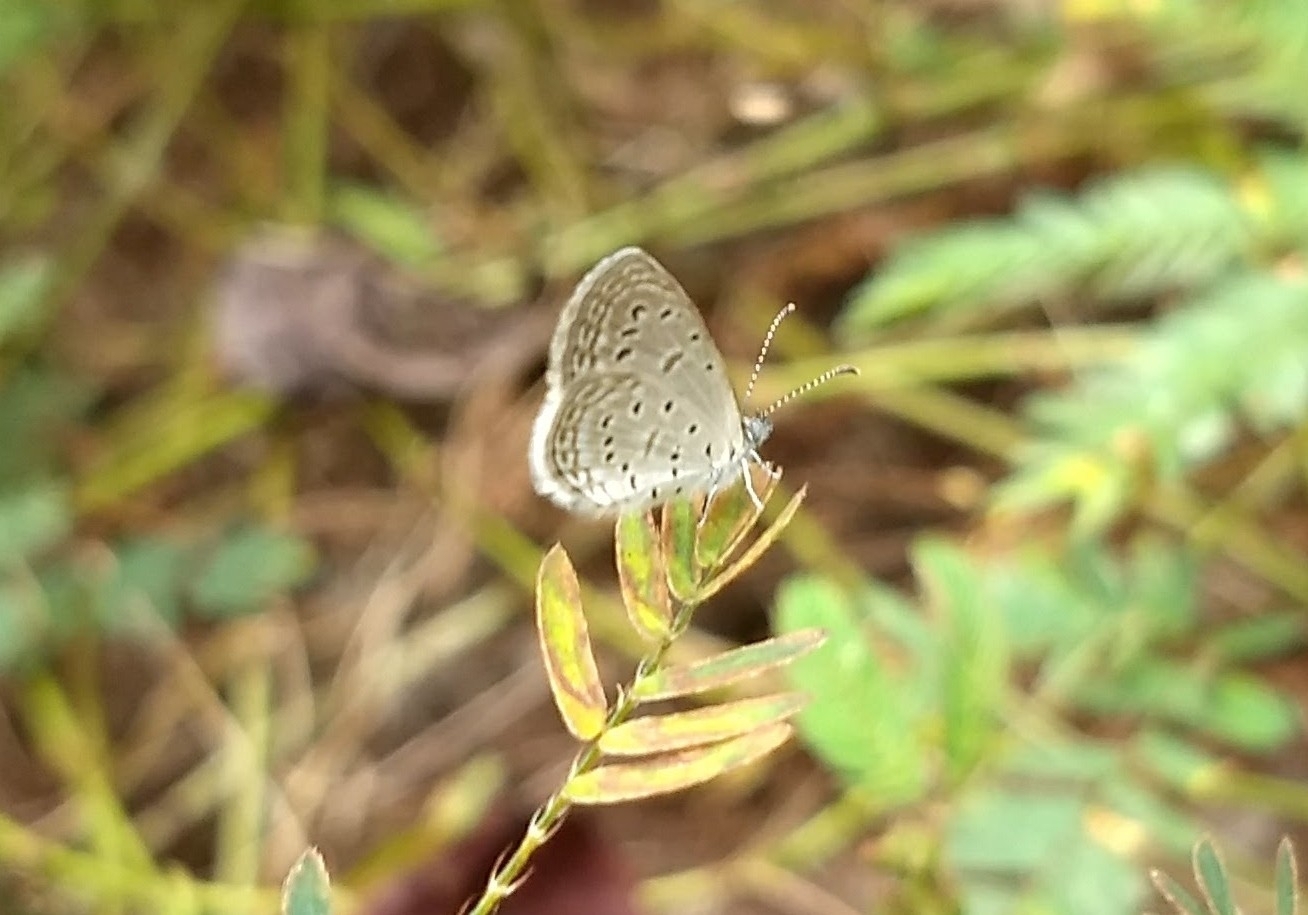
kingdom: Animalia
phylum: Arthropoda
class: Insecta
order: Lepidoptera
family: Lycaenidae
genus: Zizula
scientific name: Zizula hylax
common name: Gaika blue
